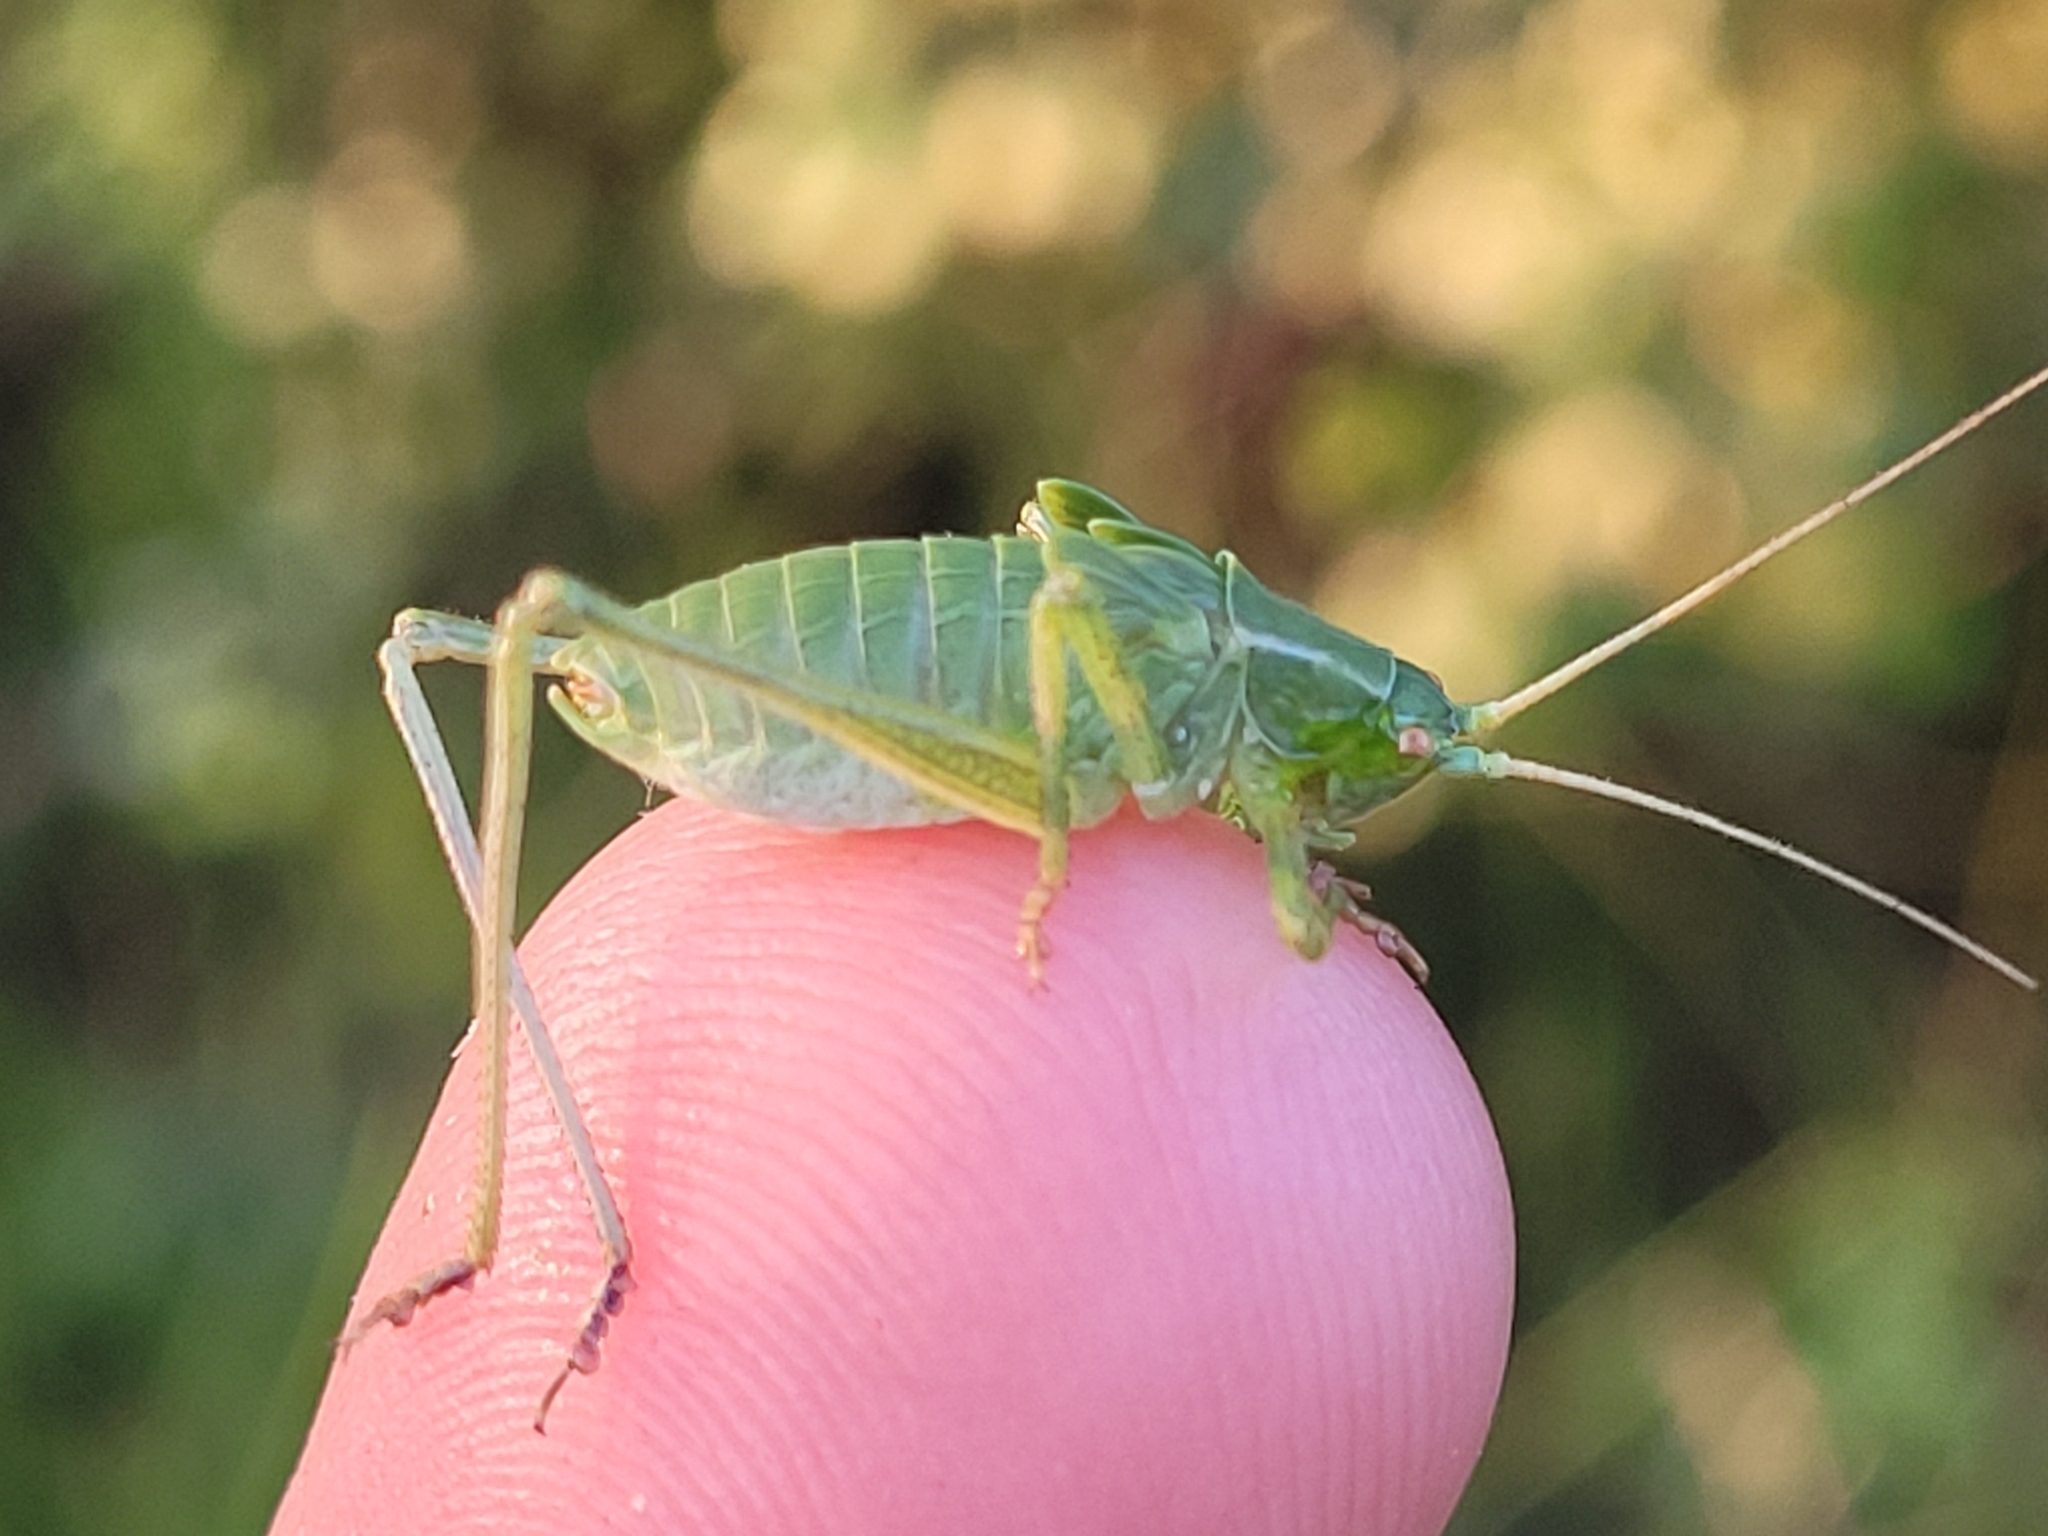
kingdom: Animalia
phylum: Arthropoda
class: Insecta
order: Orthoptera
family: Tettigoniidae
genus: Scudderia
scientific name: Scudderia pistillata
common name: Broad-winged bush-katydid
